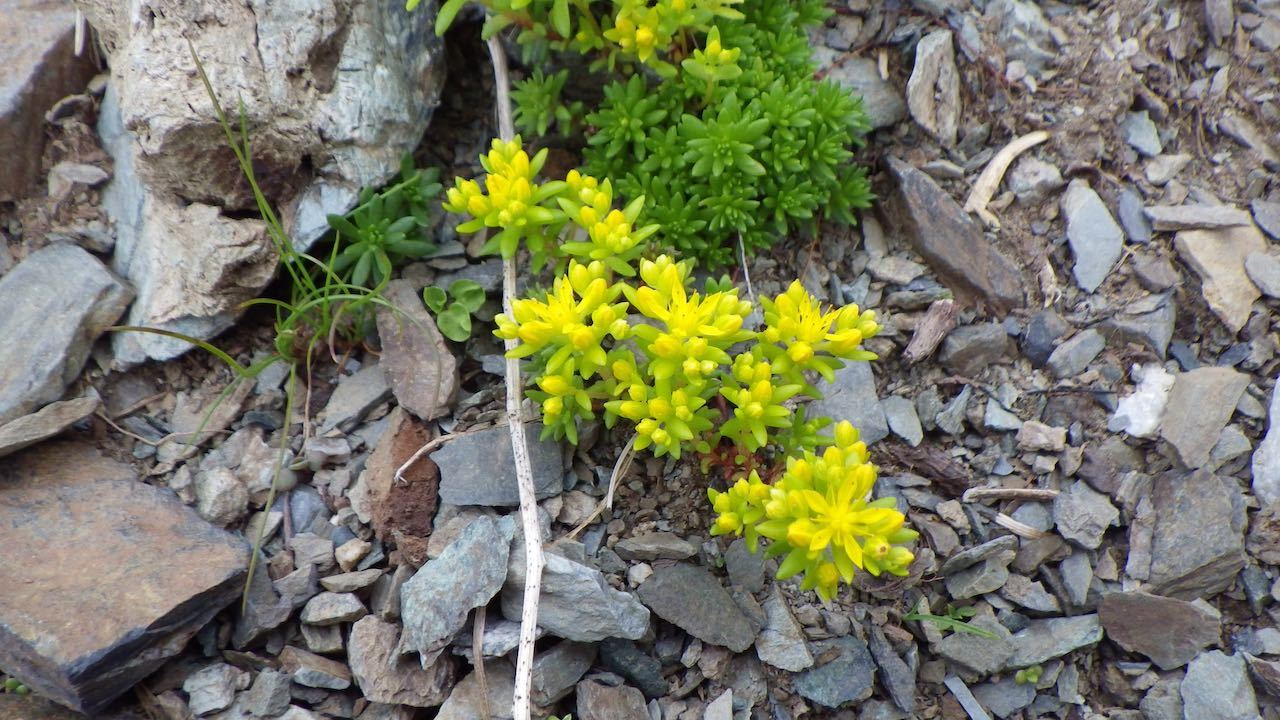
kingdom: Plantae
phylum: Tracheophyta
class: Magnoliopsida
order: Saxifragales
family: Crassulaceae
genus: Sedum
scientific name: Sedum japonicum
